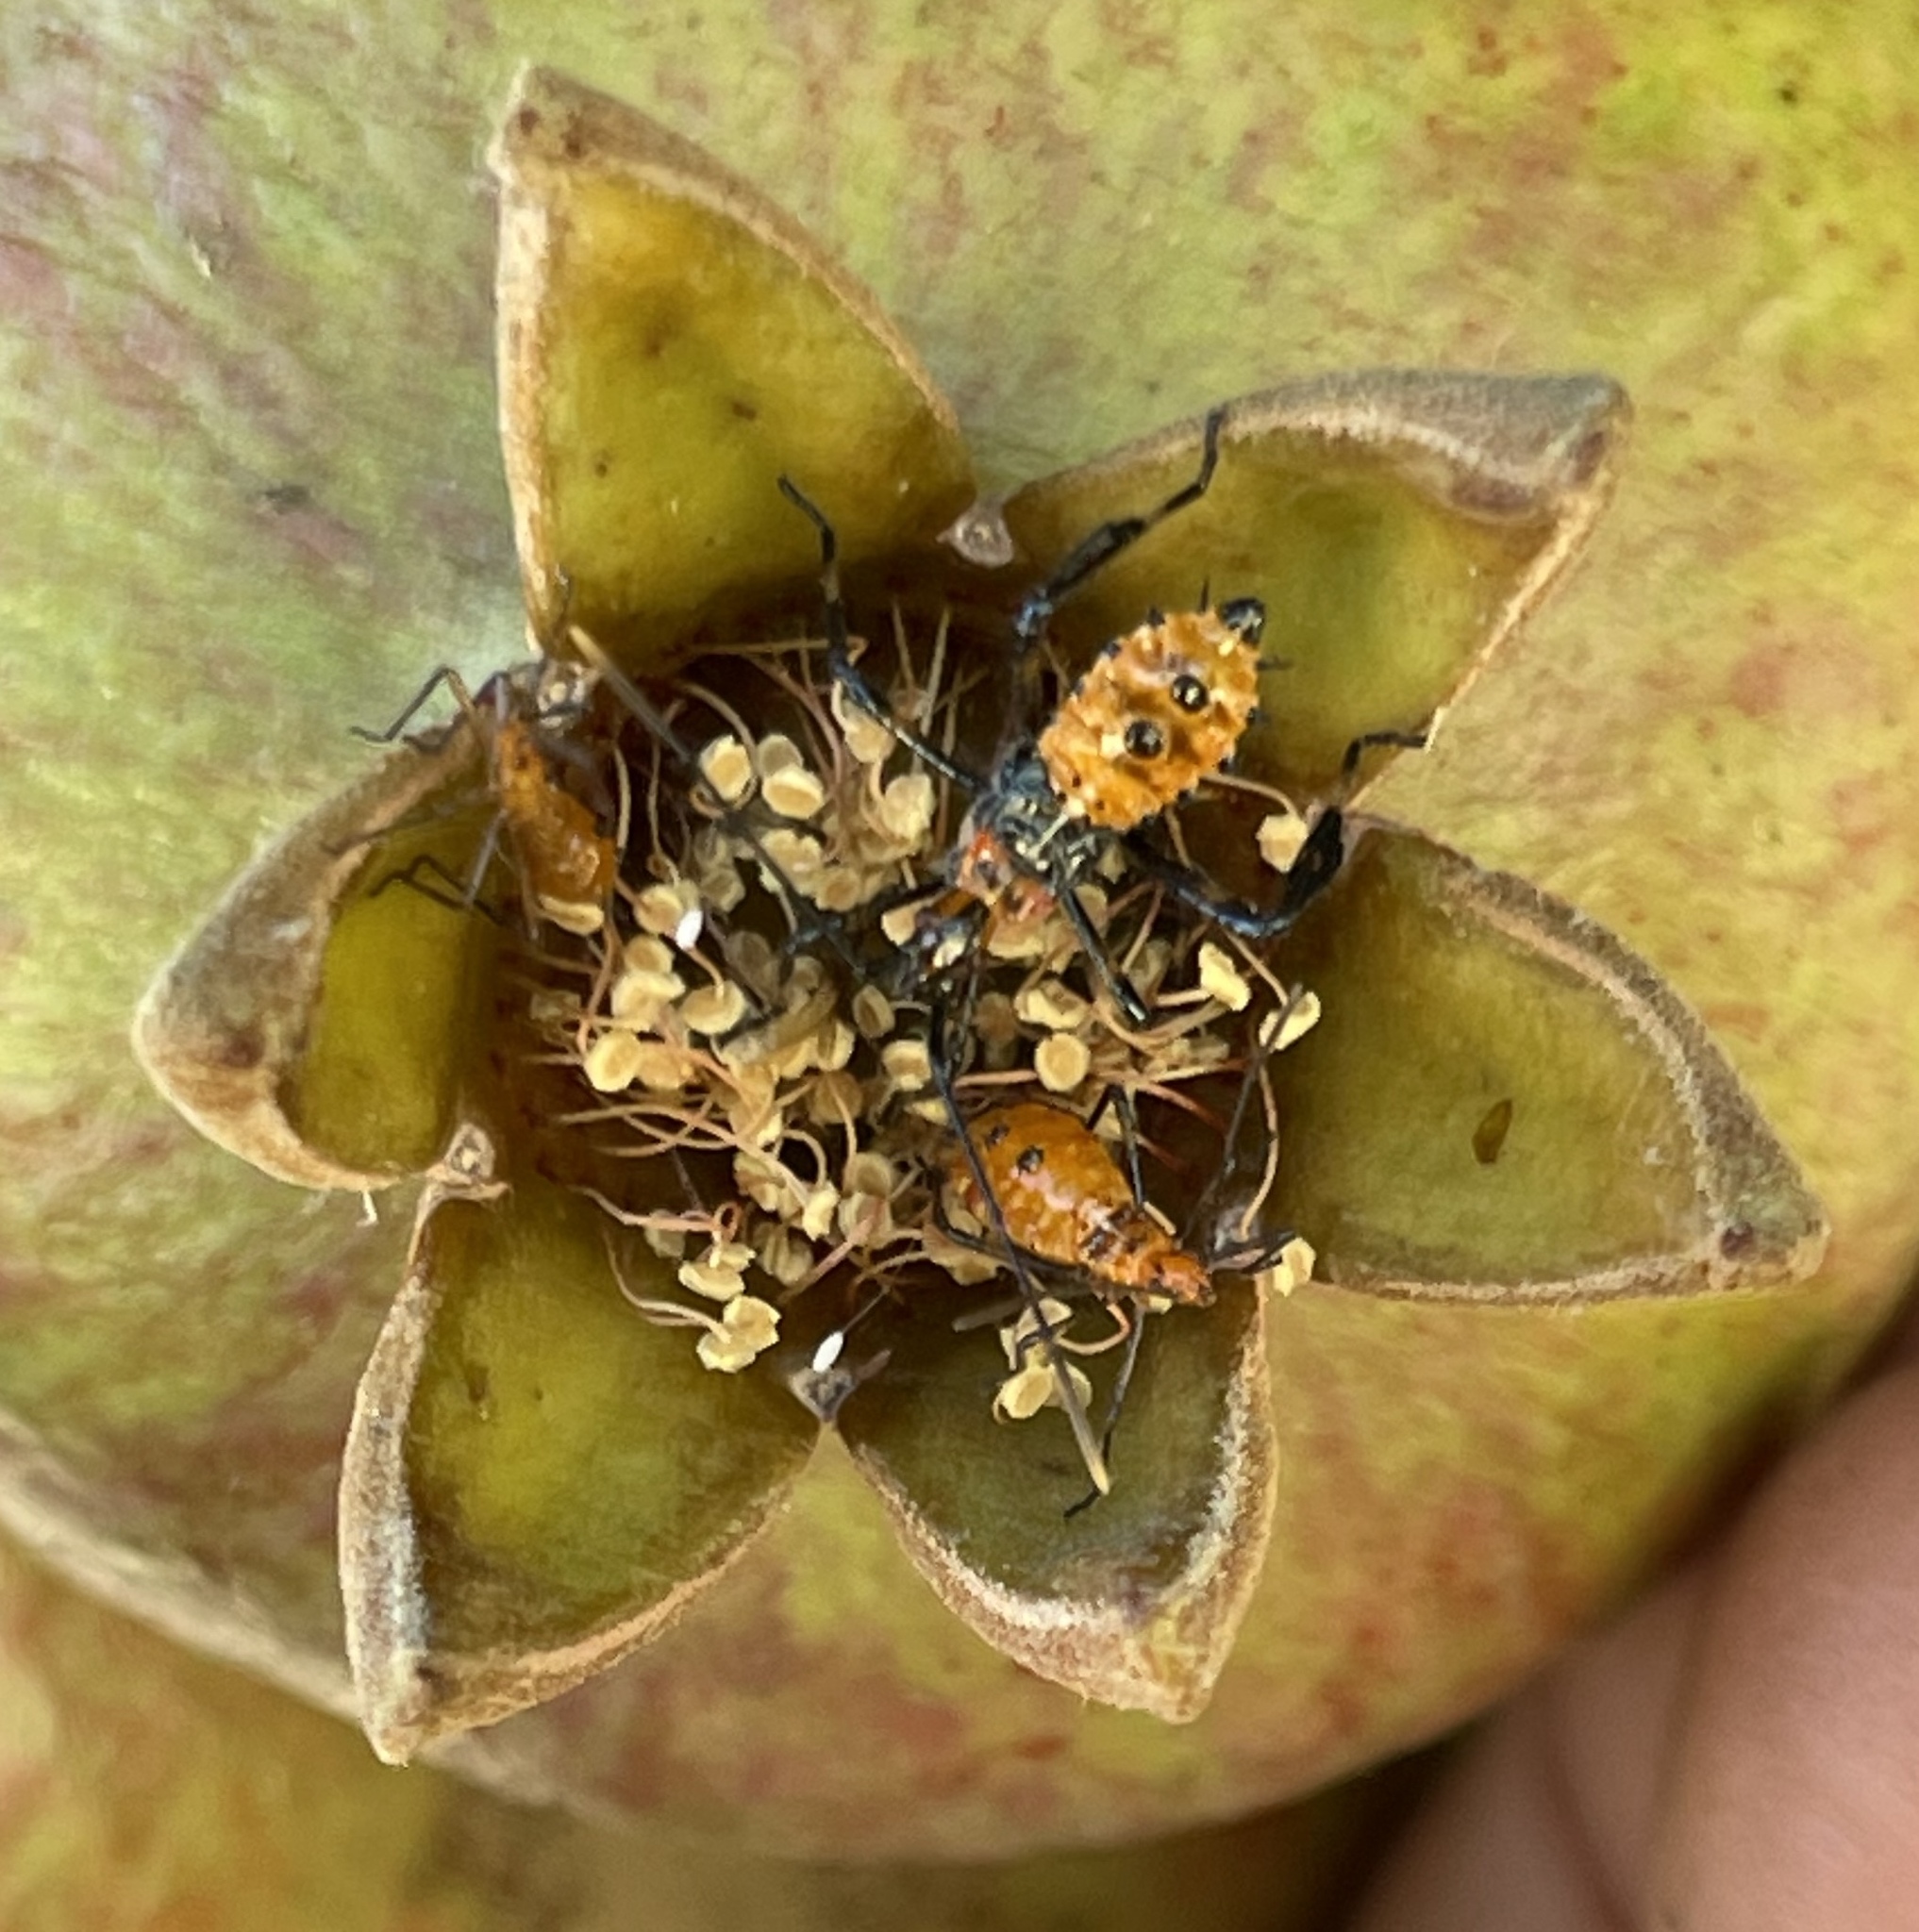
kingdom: Animalia
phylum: Arthropoda
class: Insecta
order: Hemiptera
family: Coreidae
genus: Leptoglossus
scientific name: Leptoglossus zonatus
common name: Large-legged bug
